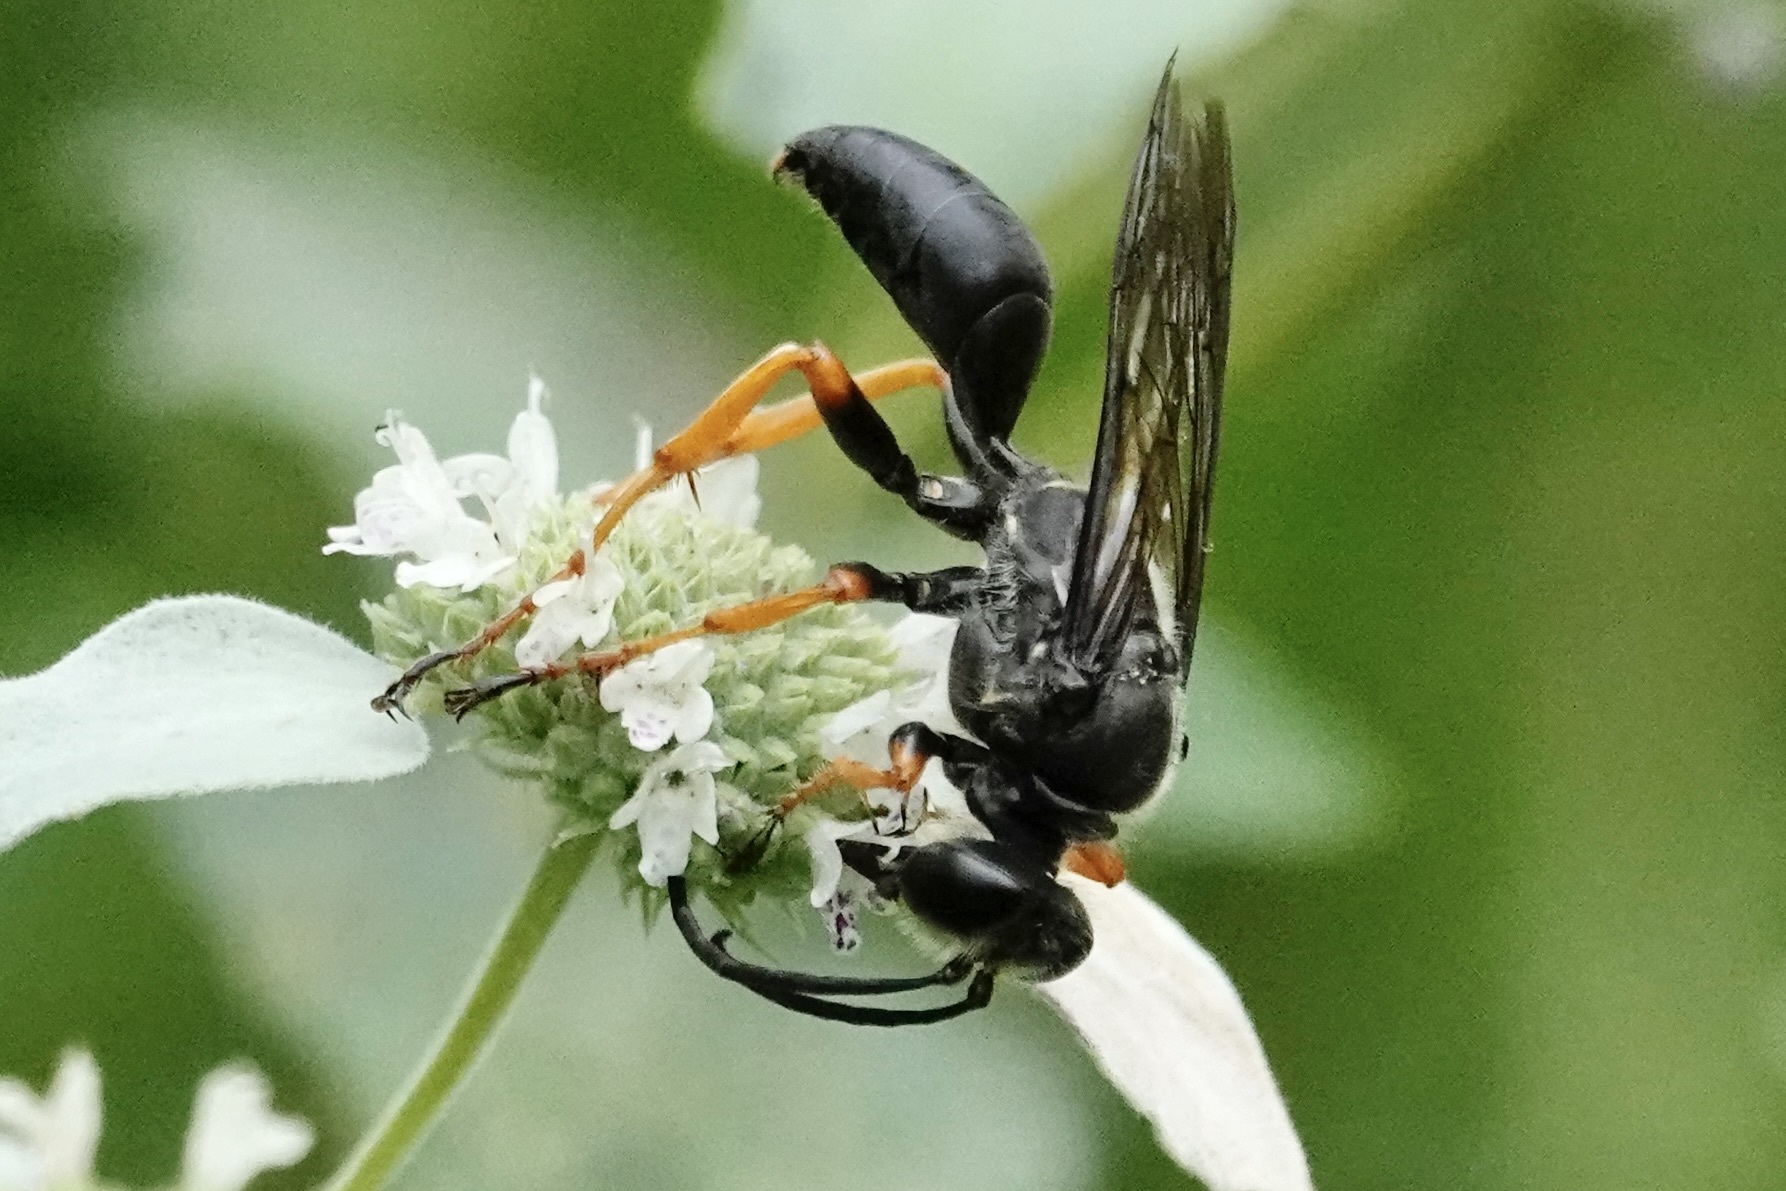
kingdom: Animalia
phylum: Arthropoda
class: Insecta
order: Hymenoptera
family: Sphecidae
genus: Sphex
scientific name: Sphex nudus
